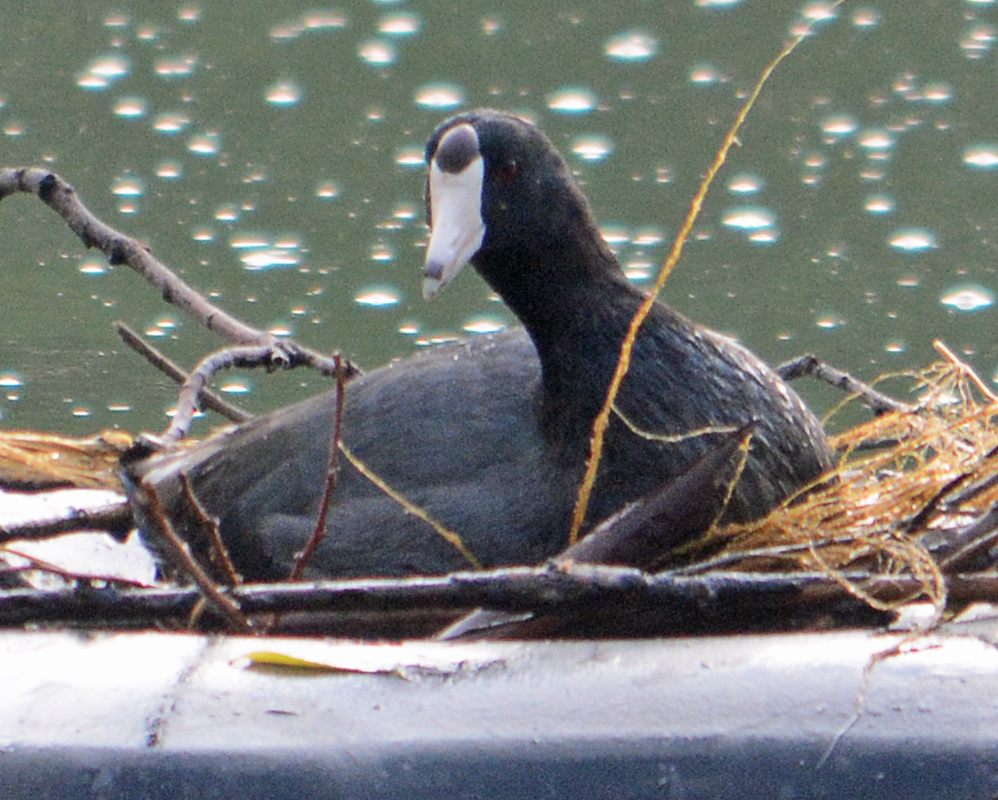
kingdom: Animalia
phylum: Chordata
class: Aves
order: Gruiformes
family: Rallidae
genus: Fulica
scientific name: Fulica americana
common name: American coot
